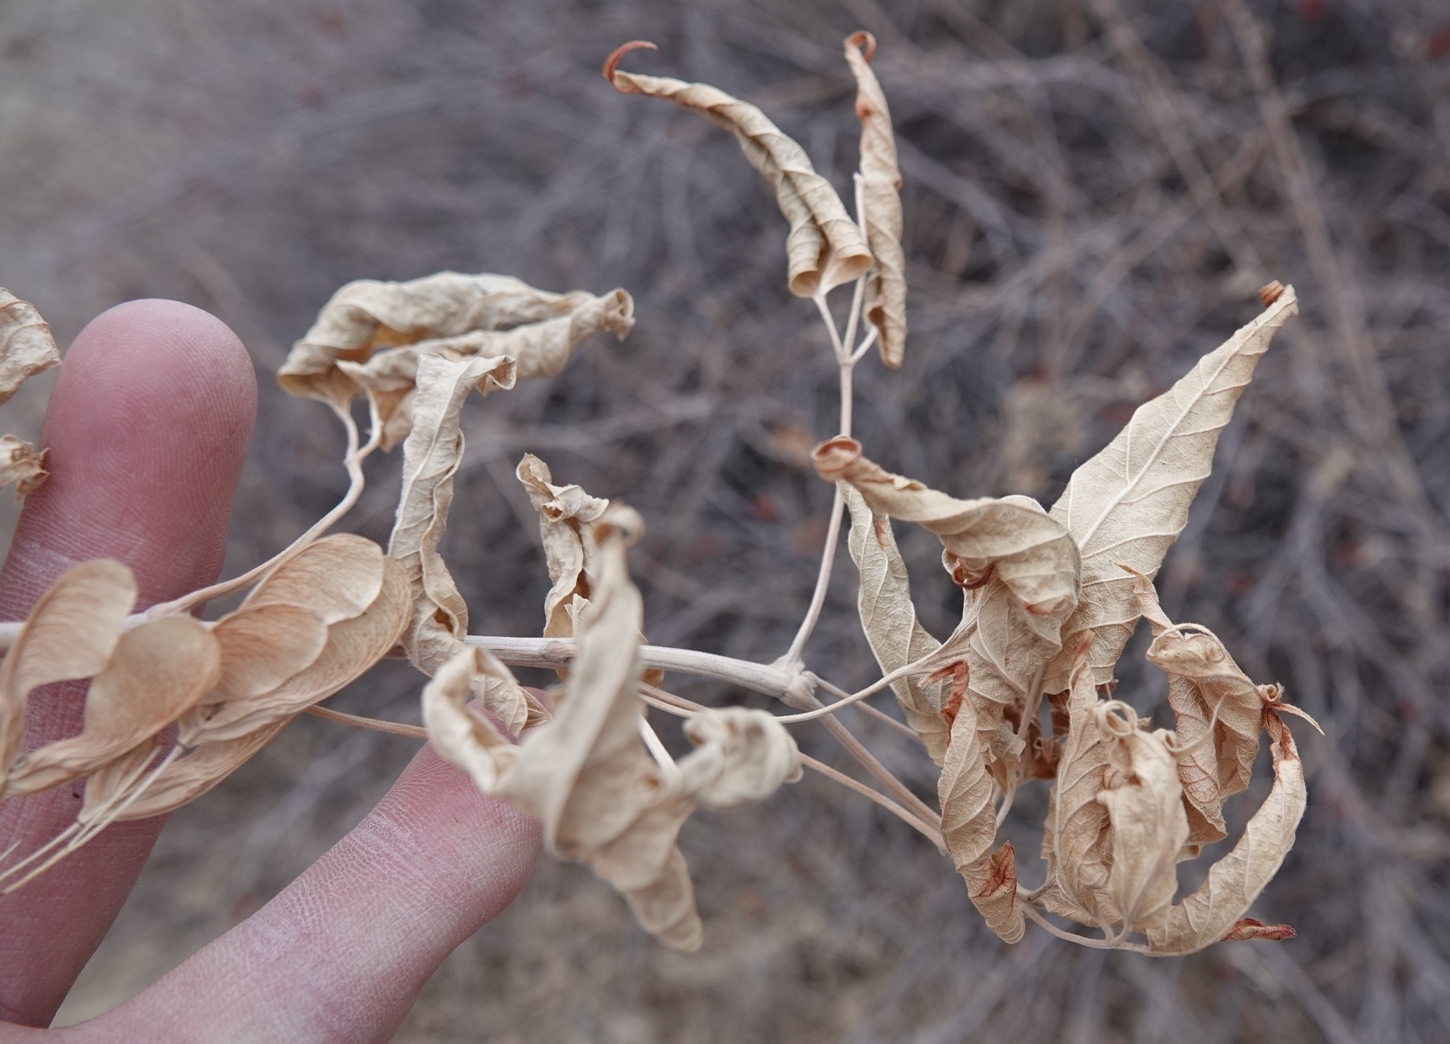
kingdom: Plantae
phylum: Tracheophyta
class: Magnoliopsida
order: Sapindales
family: Sapindaceae
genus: Acer
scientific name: Acer negundo
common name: Ashleaf maple
